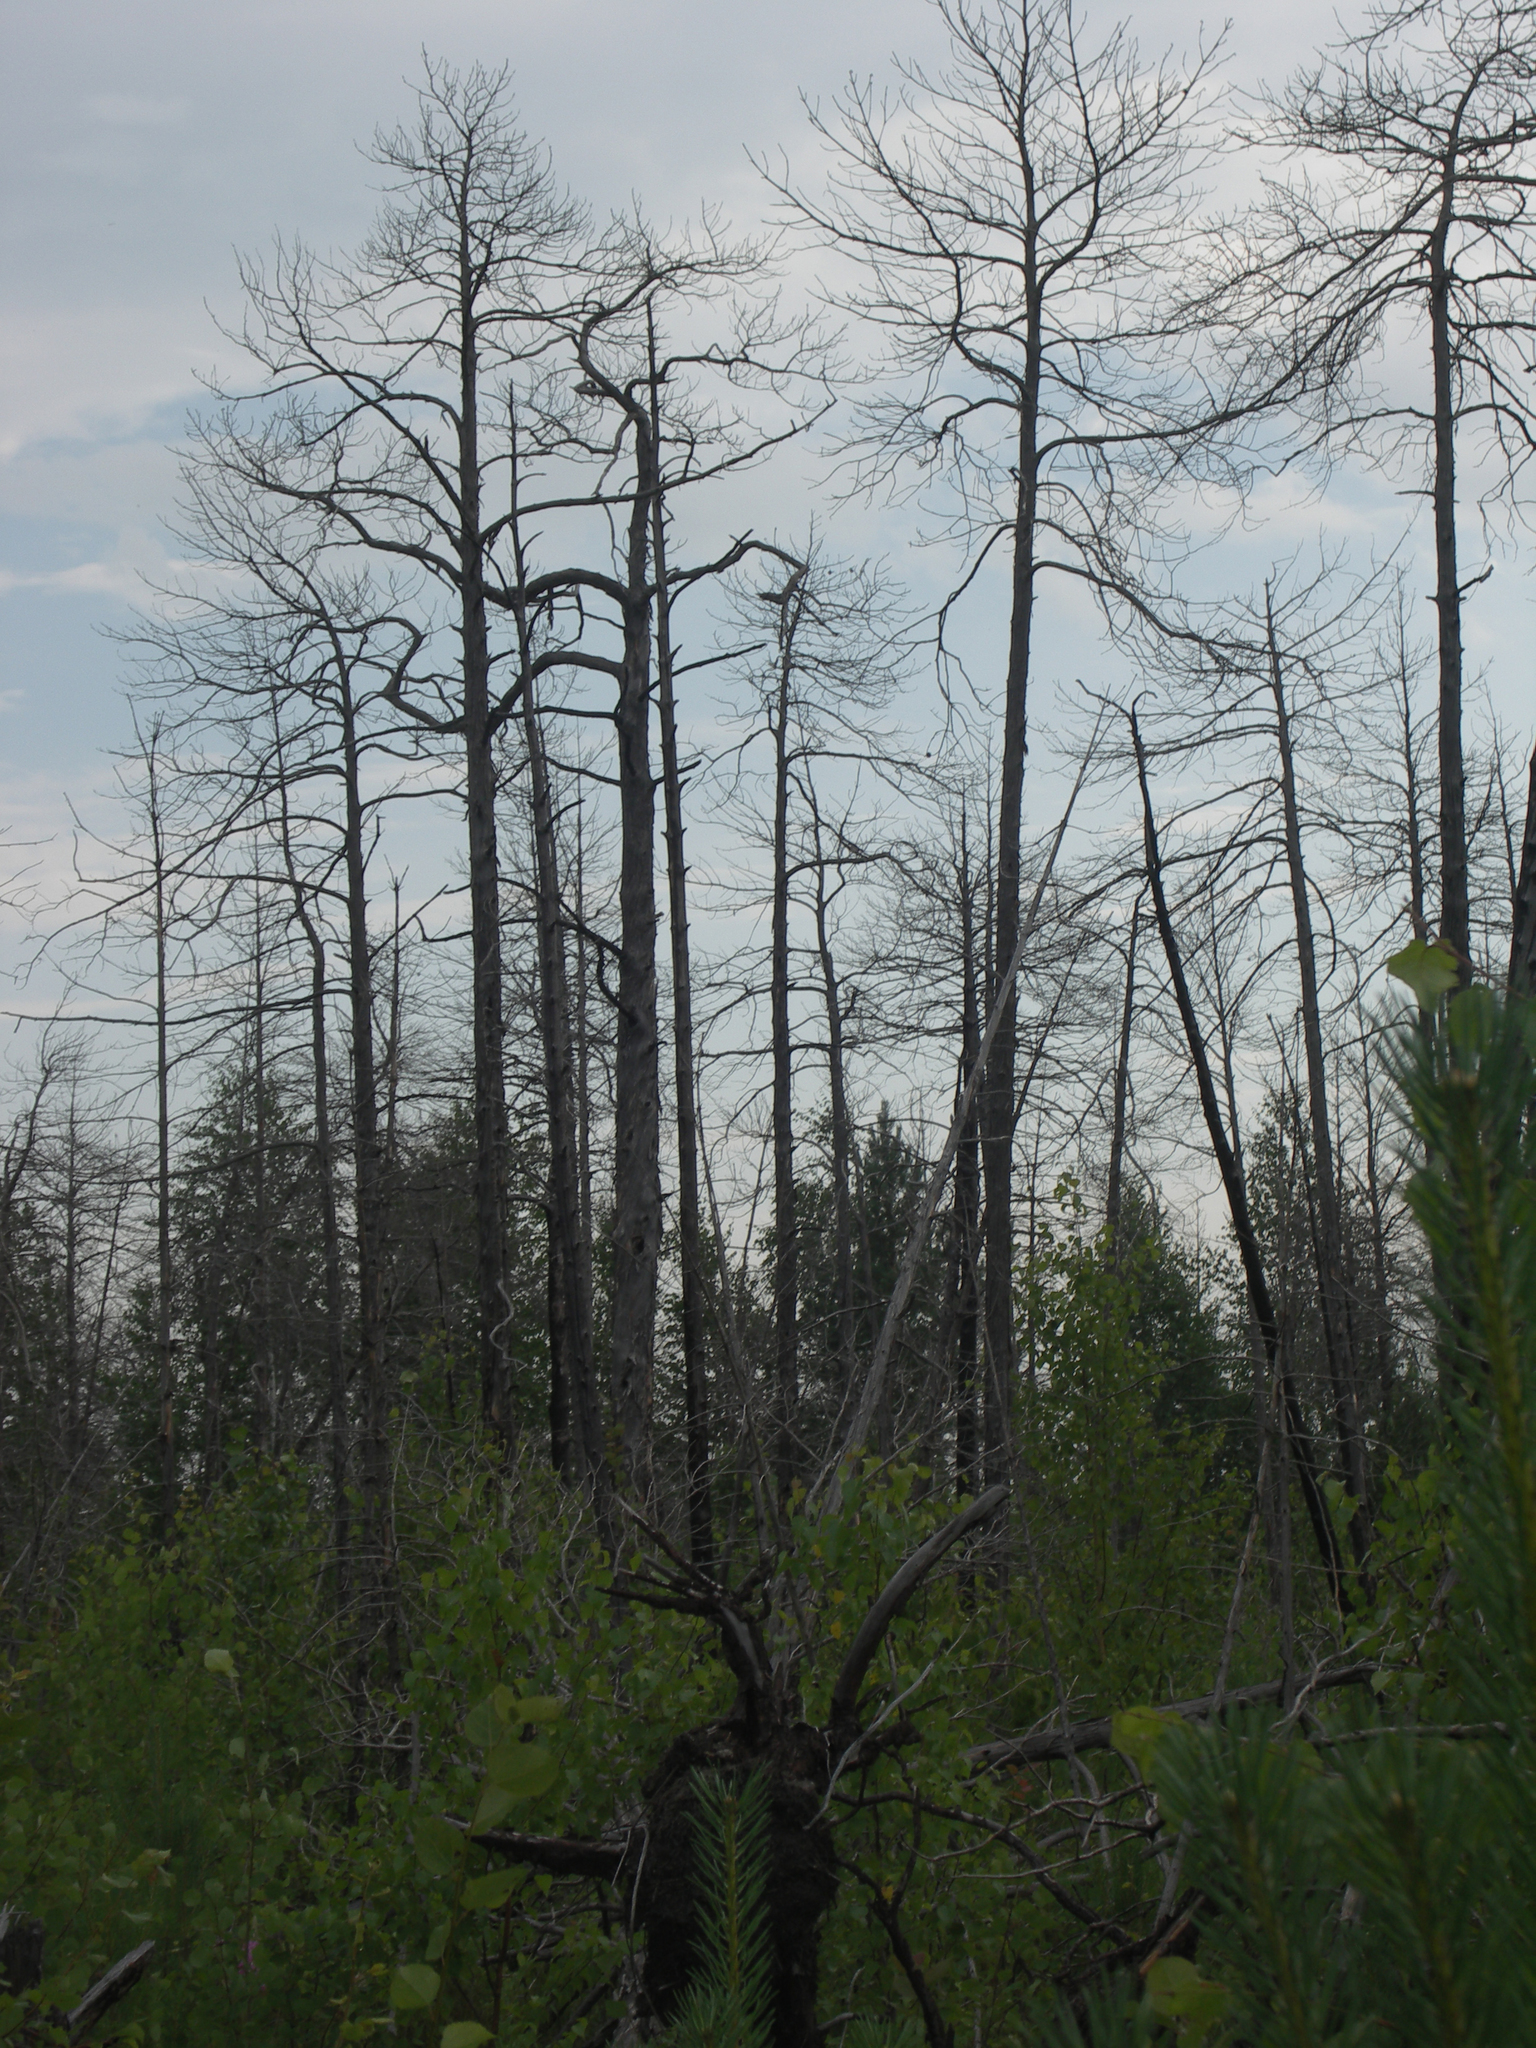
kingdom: Plantae
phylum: Tracheophyta
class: Magnoliopsida
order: Fagales
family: Betulaceae
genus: Betula
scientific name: Betula pubescens
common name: Downy birch
